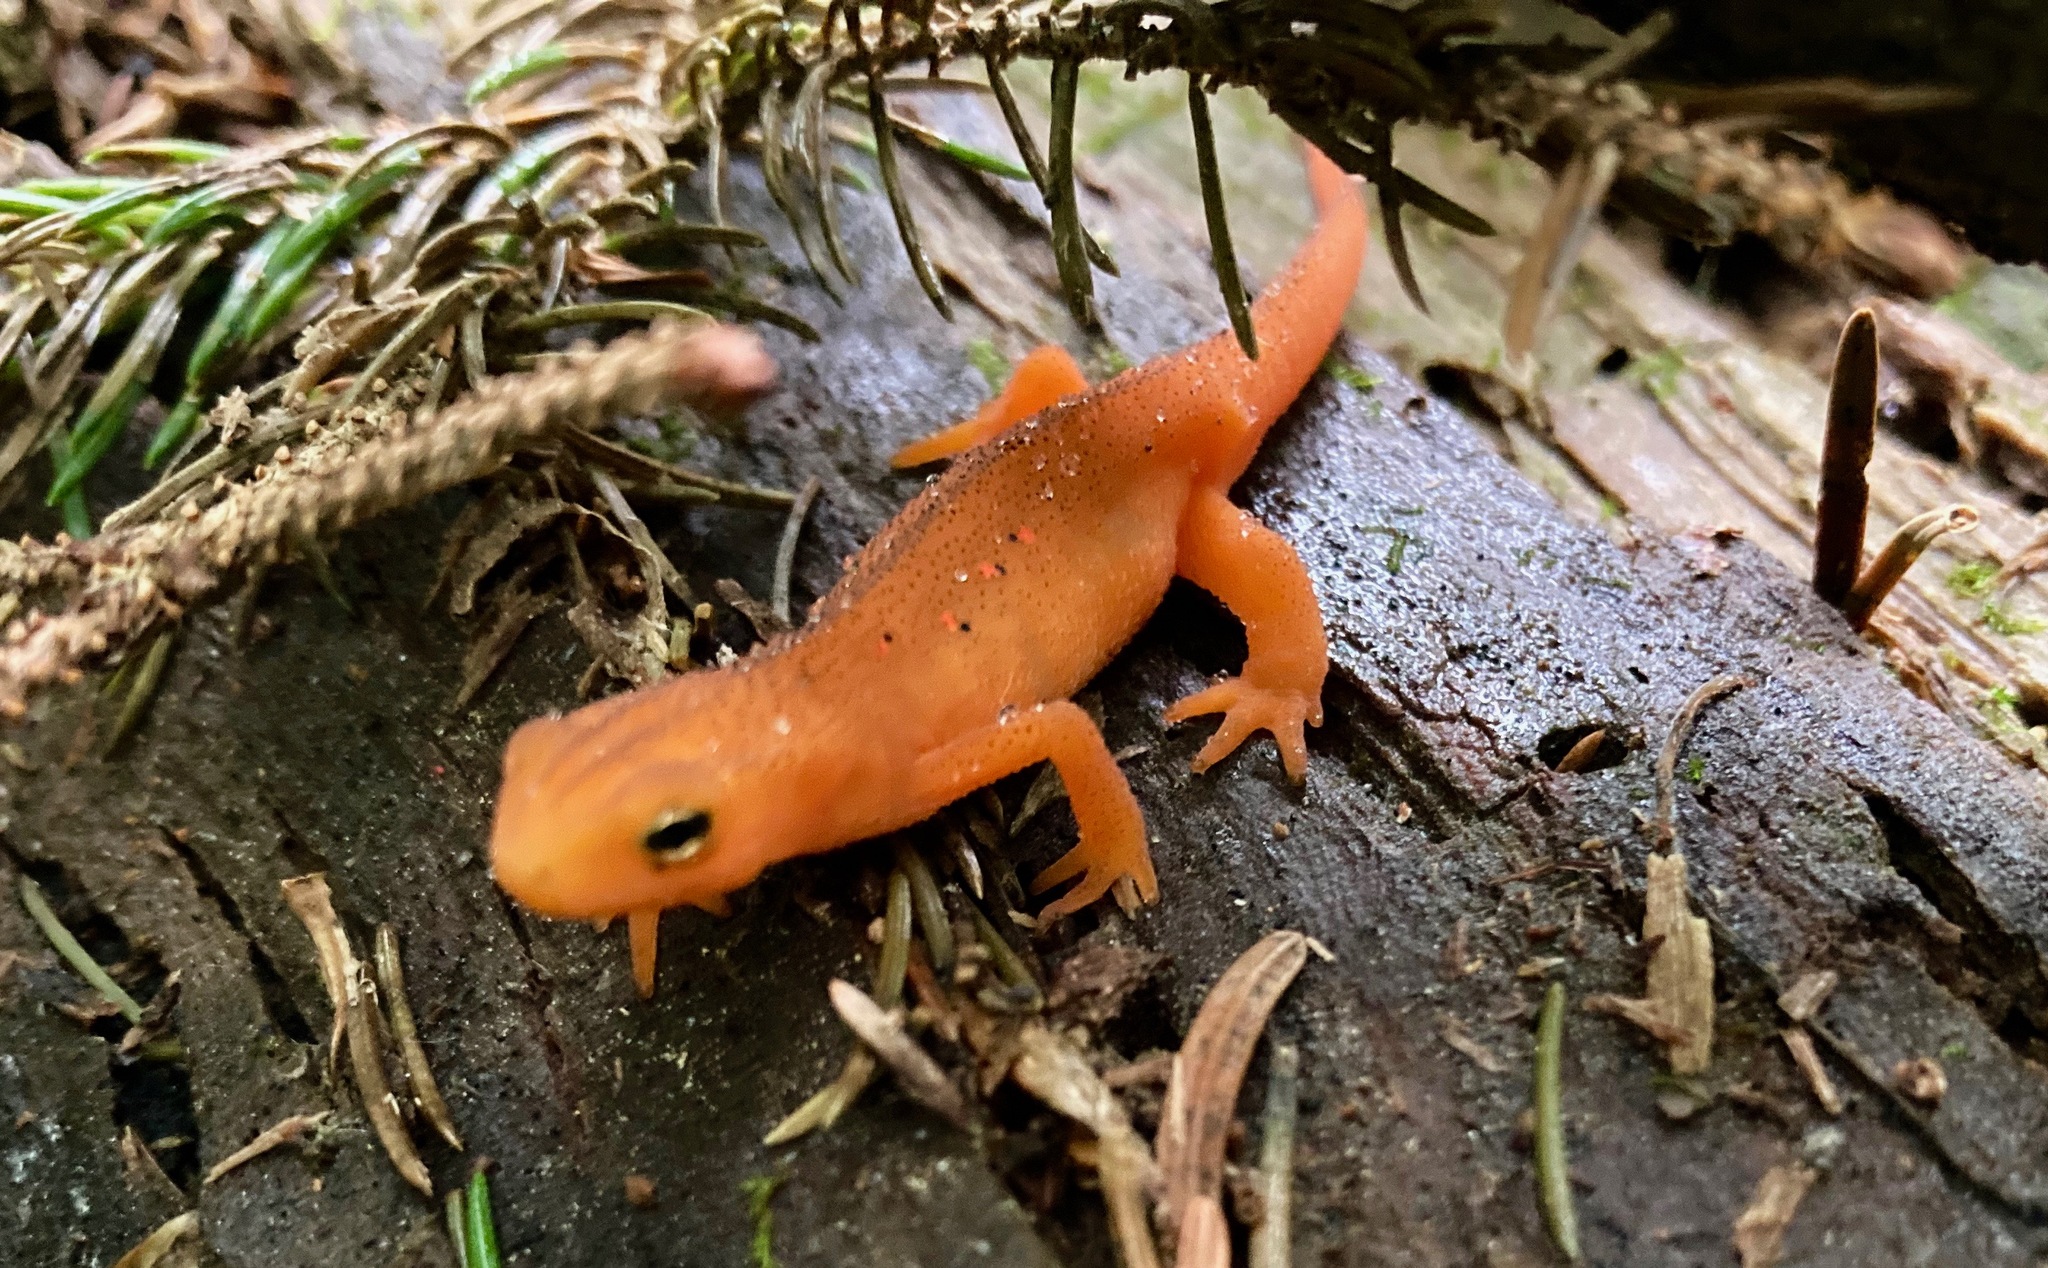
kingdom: Animalia
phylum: Chordata
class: Amphibia
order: Caudata
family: Salamandridae
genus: Notophthalmus
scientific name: Notophthalmus viridescens
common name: Eastern newt
